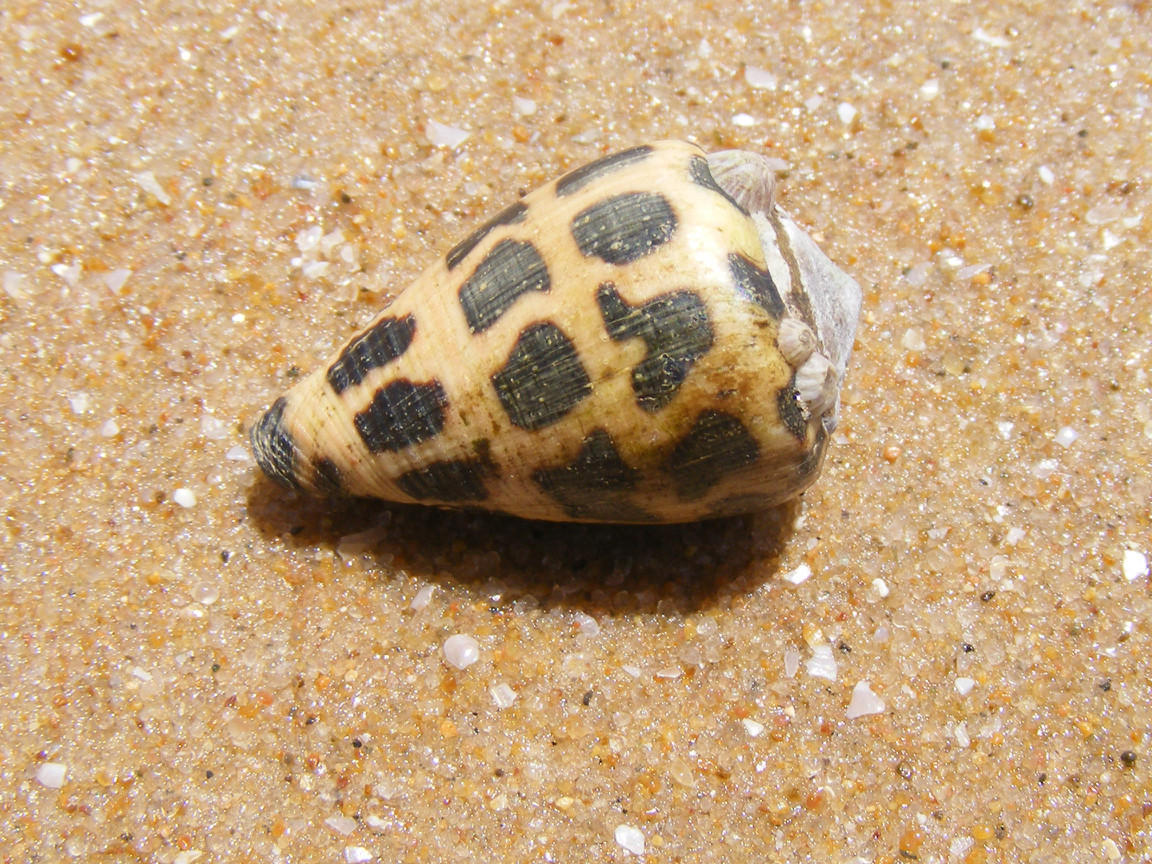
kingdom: Animalia
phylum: Mollusca
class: Gastropoda
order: Neogastropoda
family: Conidae
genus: Conus
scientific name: Conus ebraeus
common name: Hebrew cone
